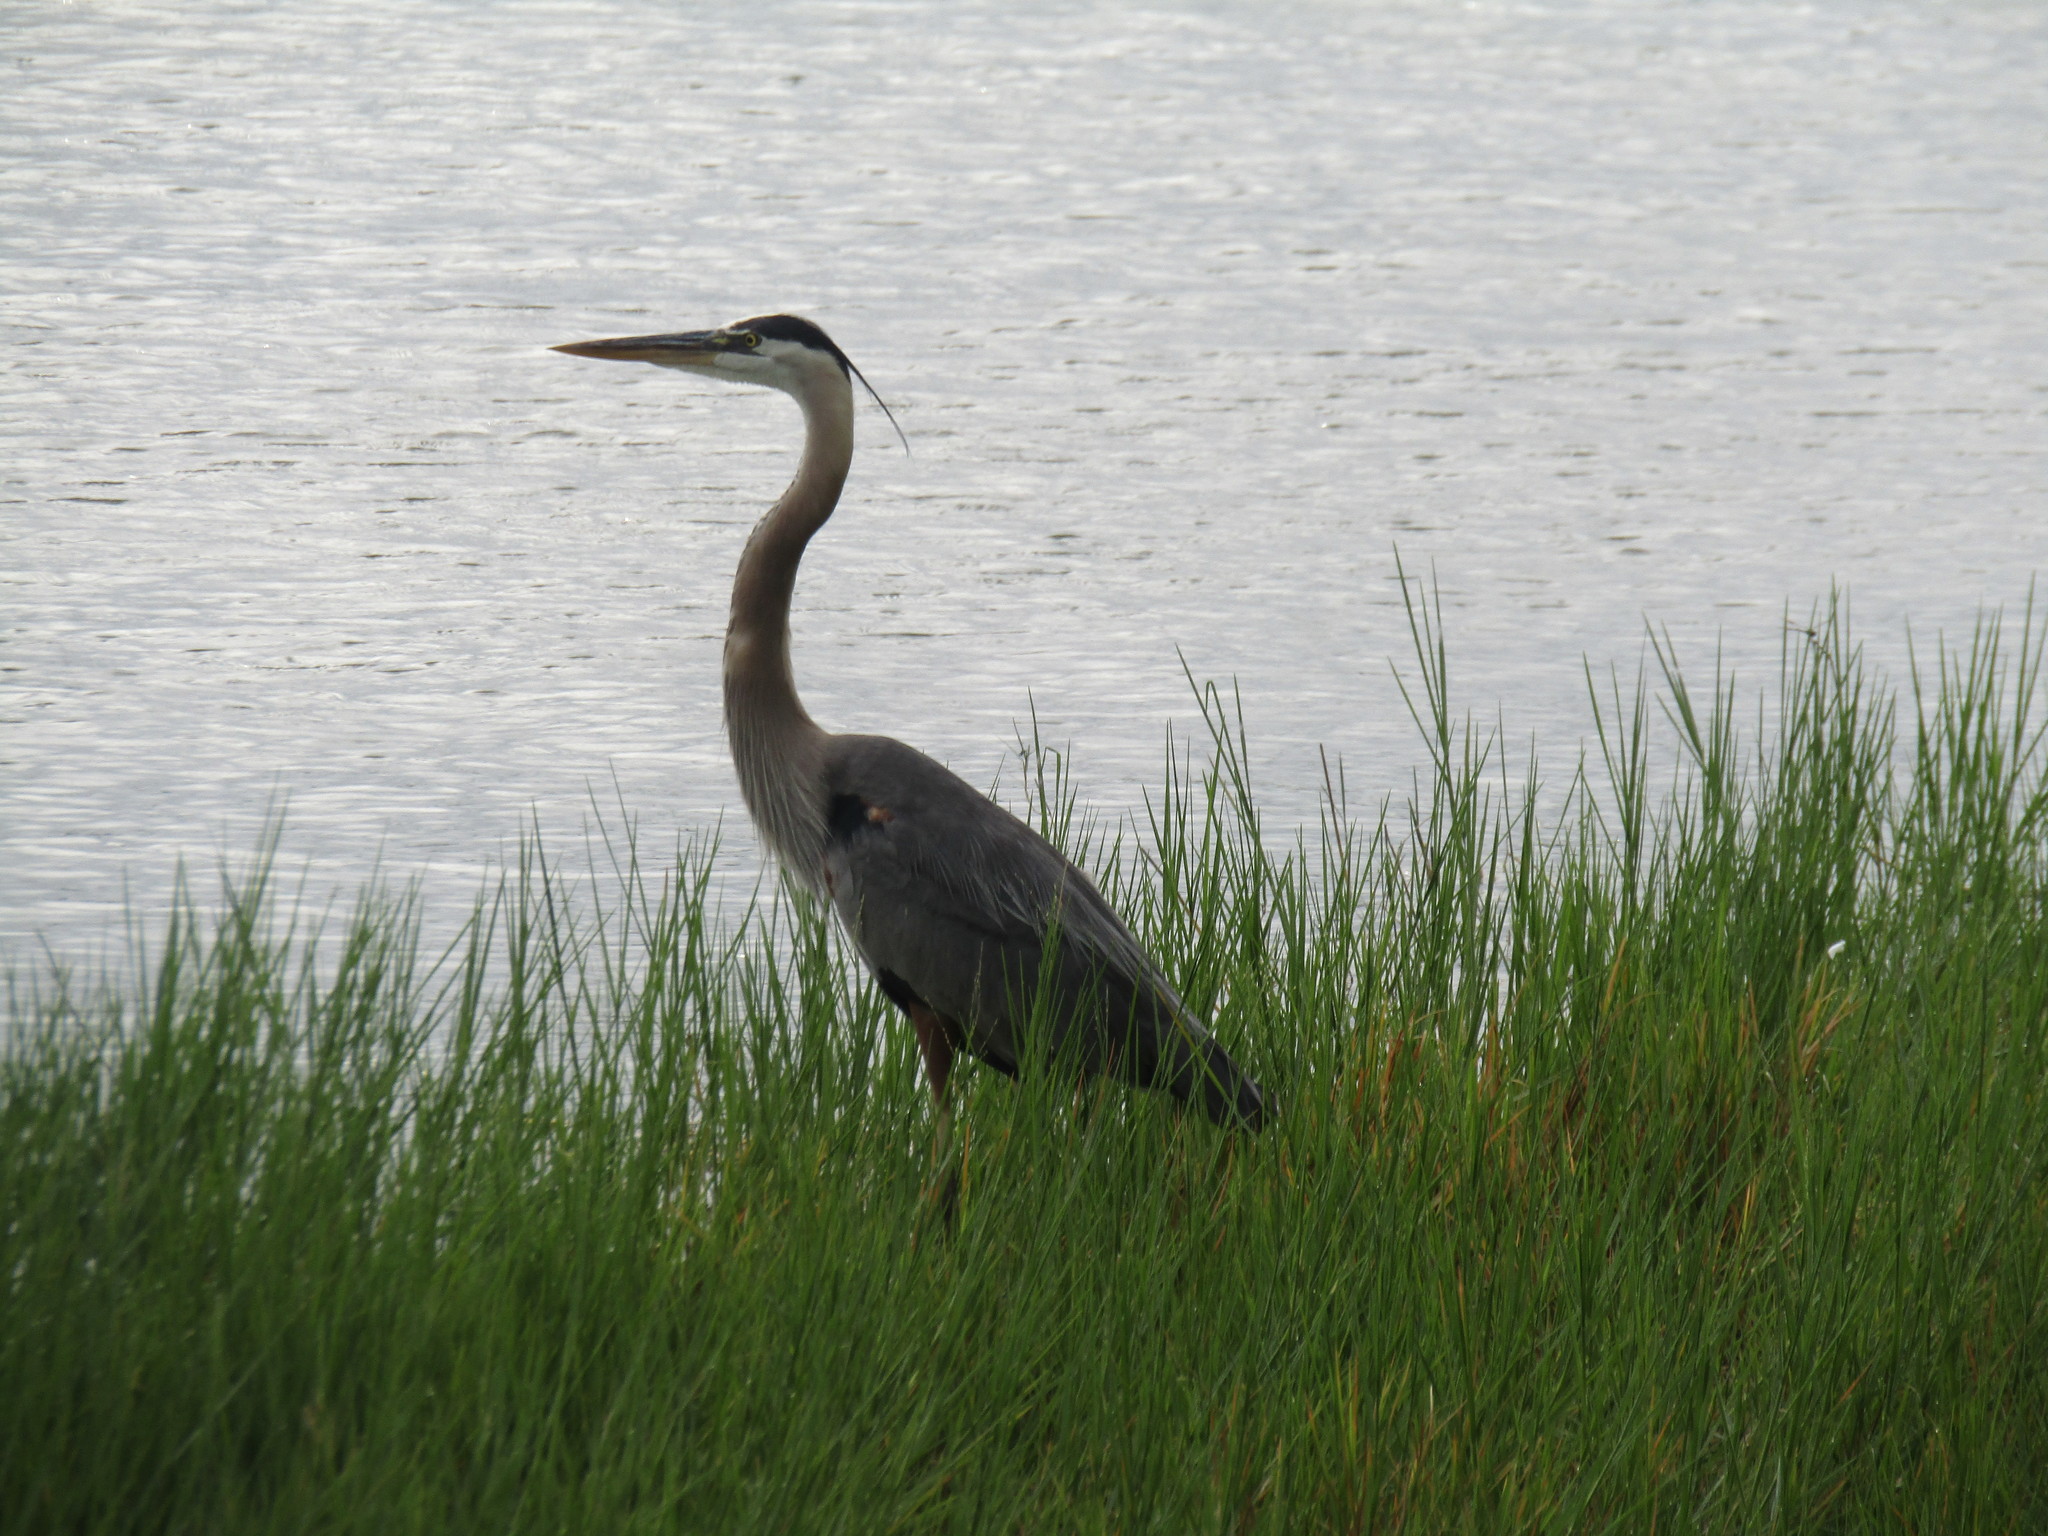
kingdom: Animalia
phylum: Chordata
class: Aves
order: Pelecaniformes
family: Ardeidae
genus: Ardea
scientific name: Ardea herodias
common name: Great blue heron
